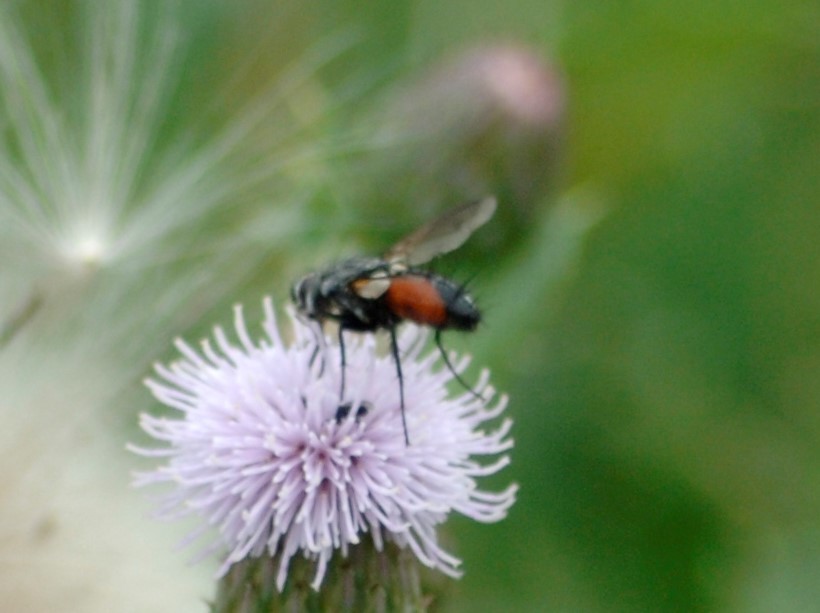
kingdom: Animalia
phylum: Arthropoda
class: Insecta
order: Diptera
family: Tachinidae
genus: Eriothrix
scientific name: Eriothrix rufomaculatus
